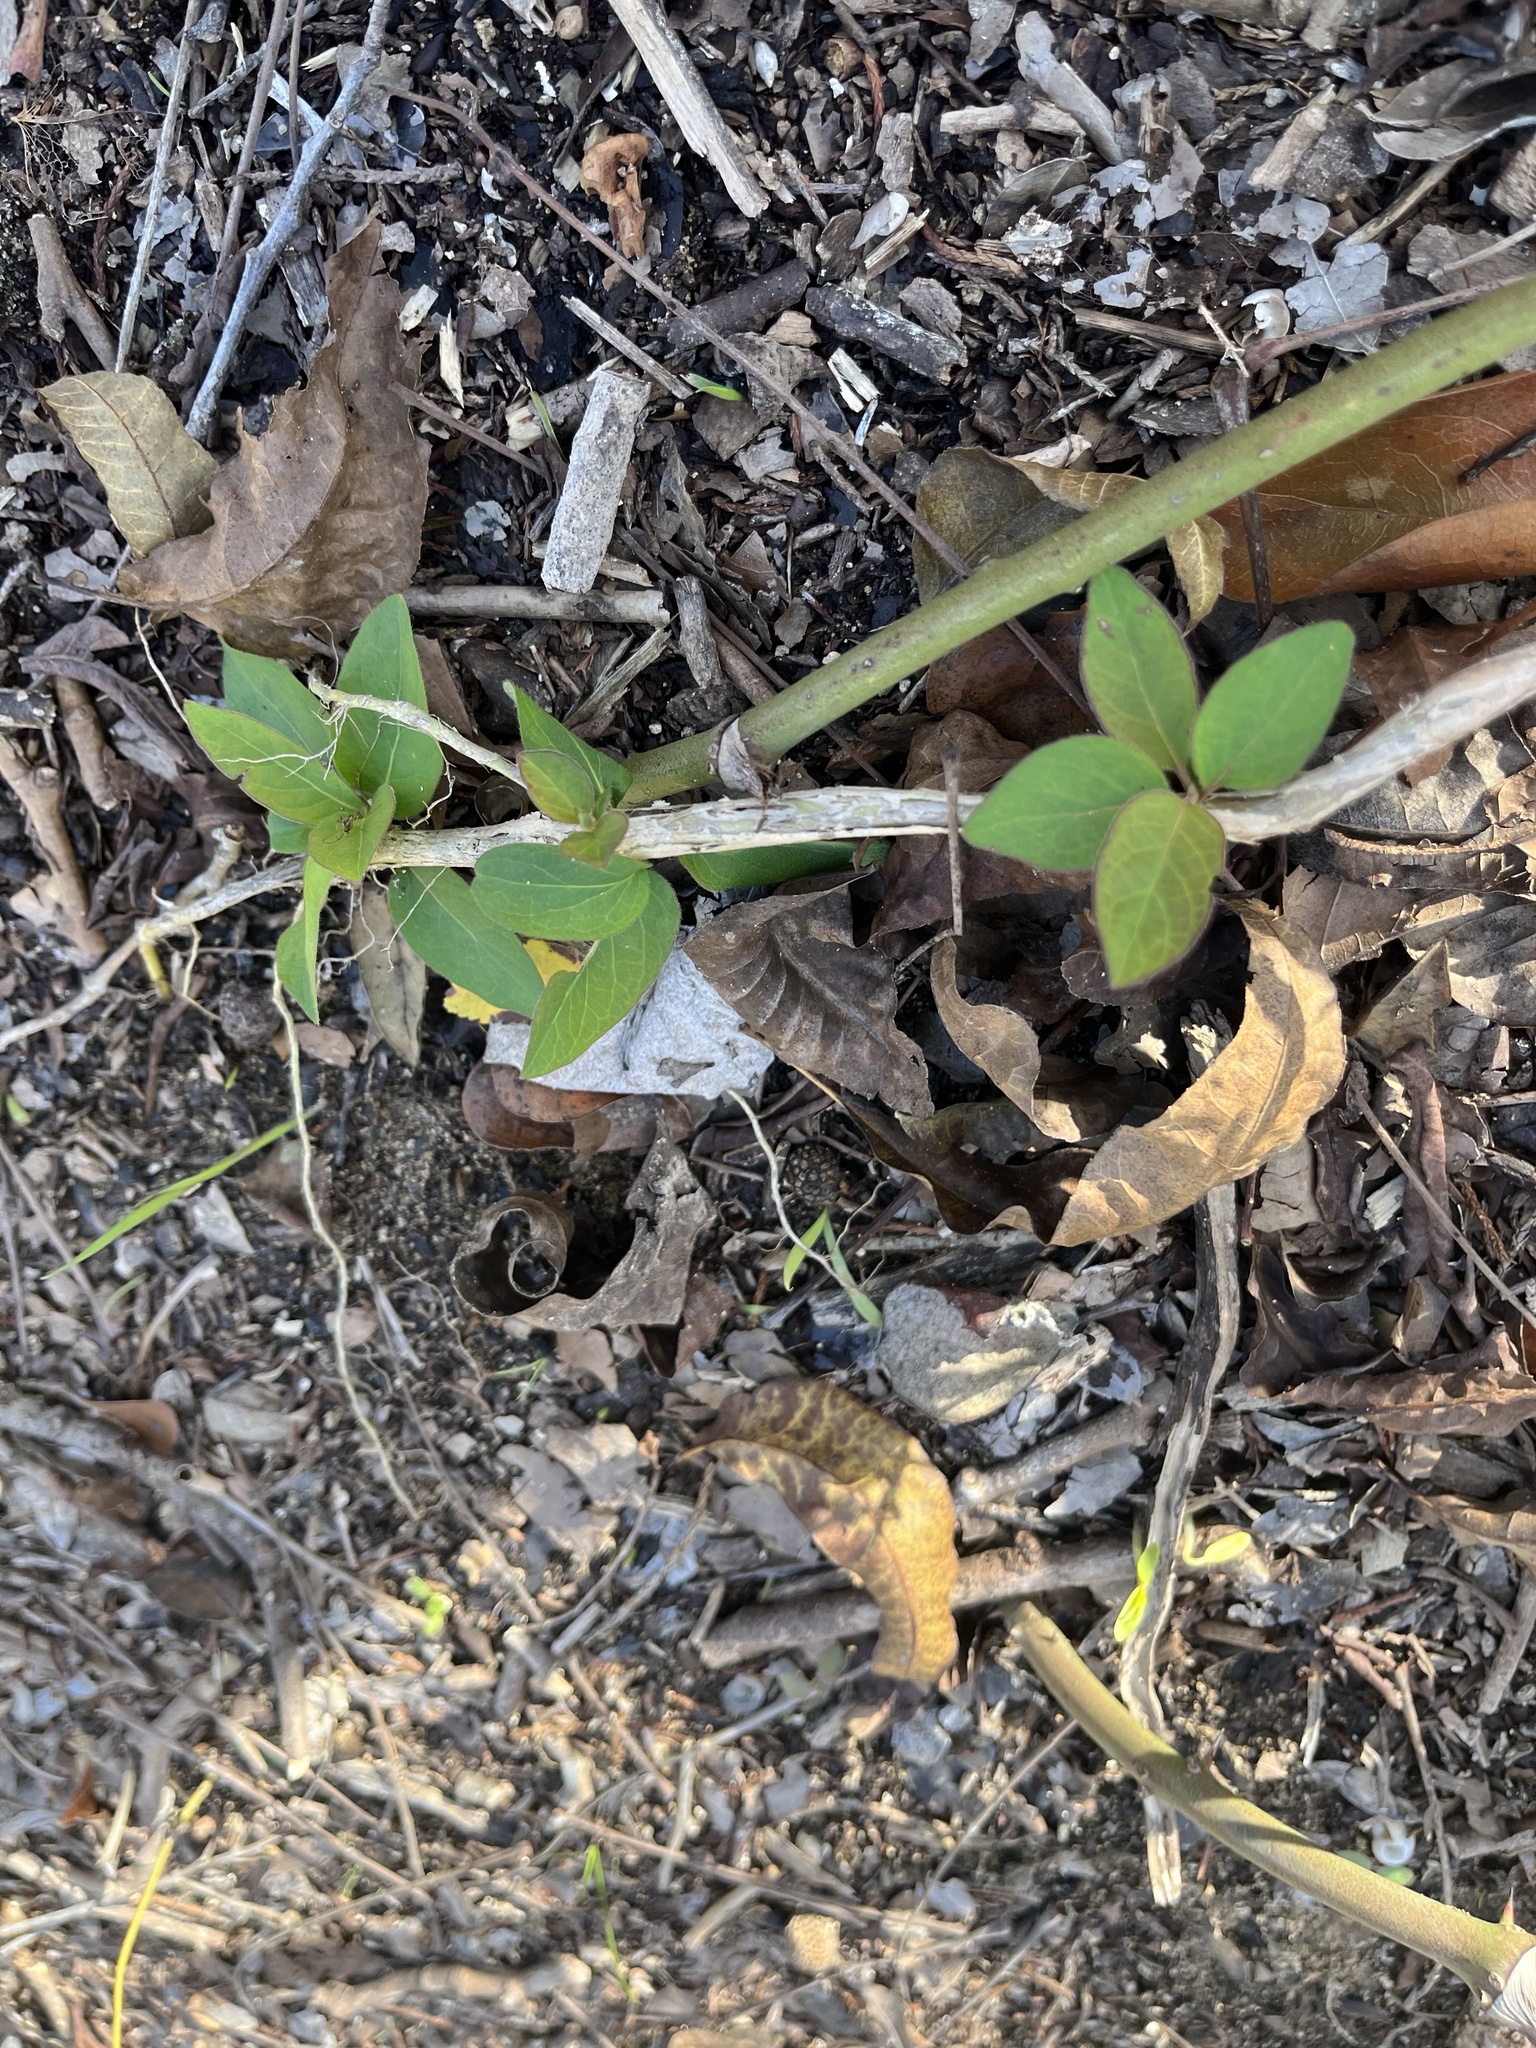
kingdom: Plantae
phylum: Tracheophyta
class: Magnoliopsida
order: Dipsacales
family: Caprifoliaceae
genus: Lonicera
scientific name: Lonicera japonica
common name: Japanese honeysuckle
